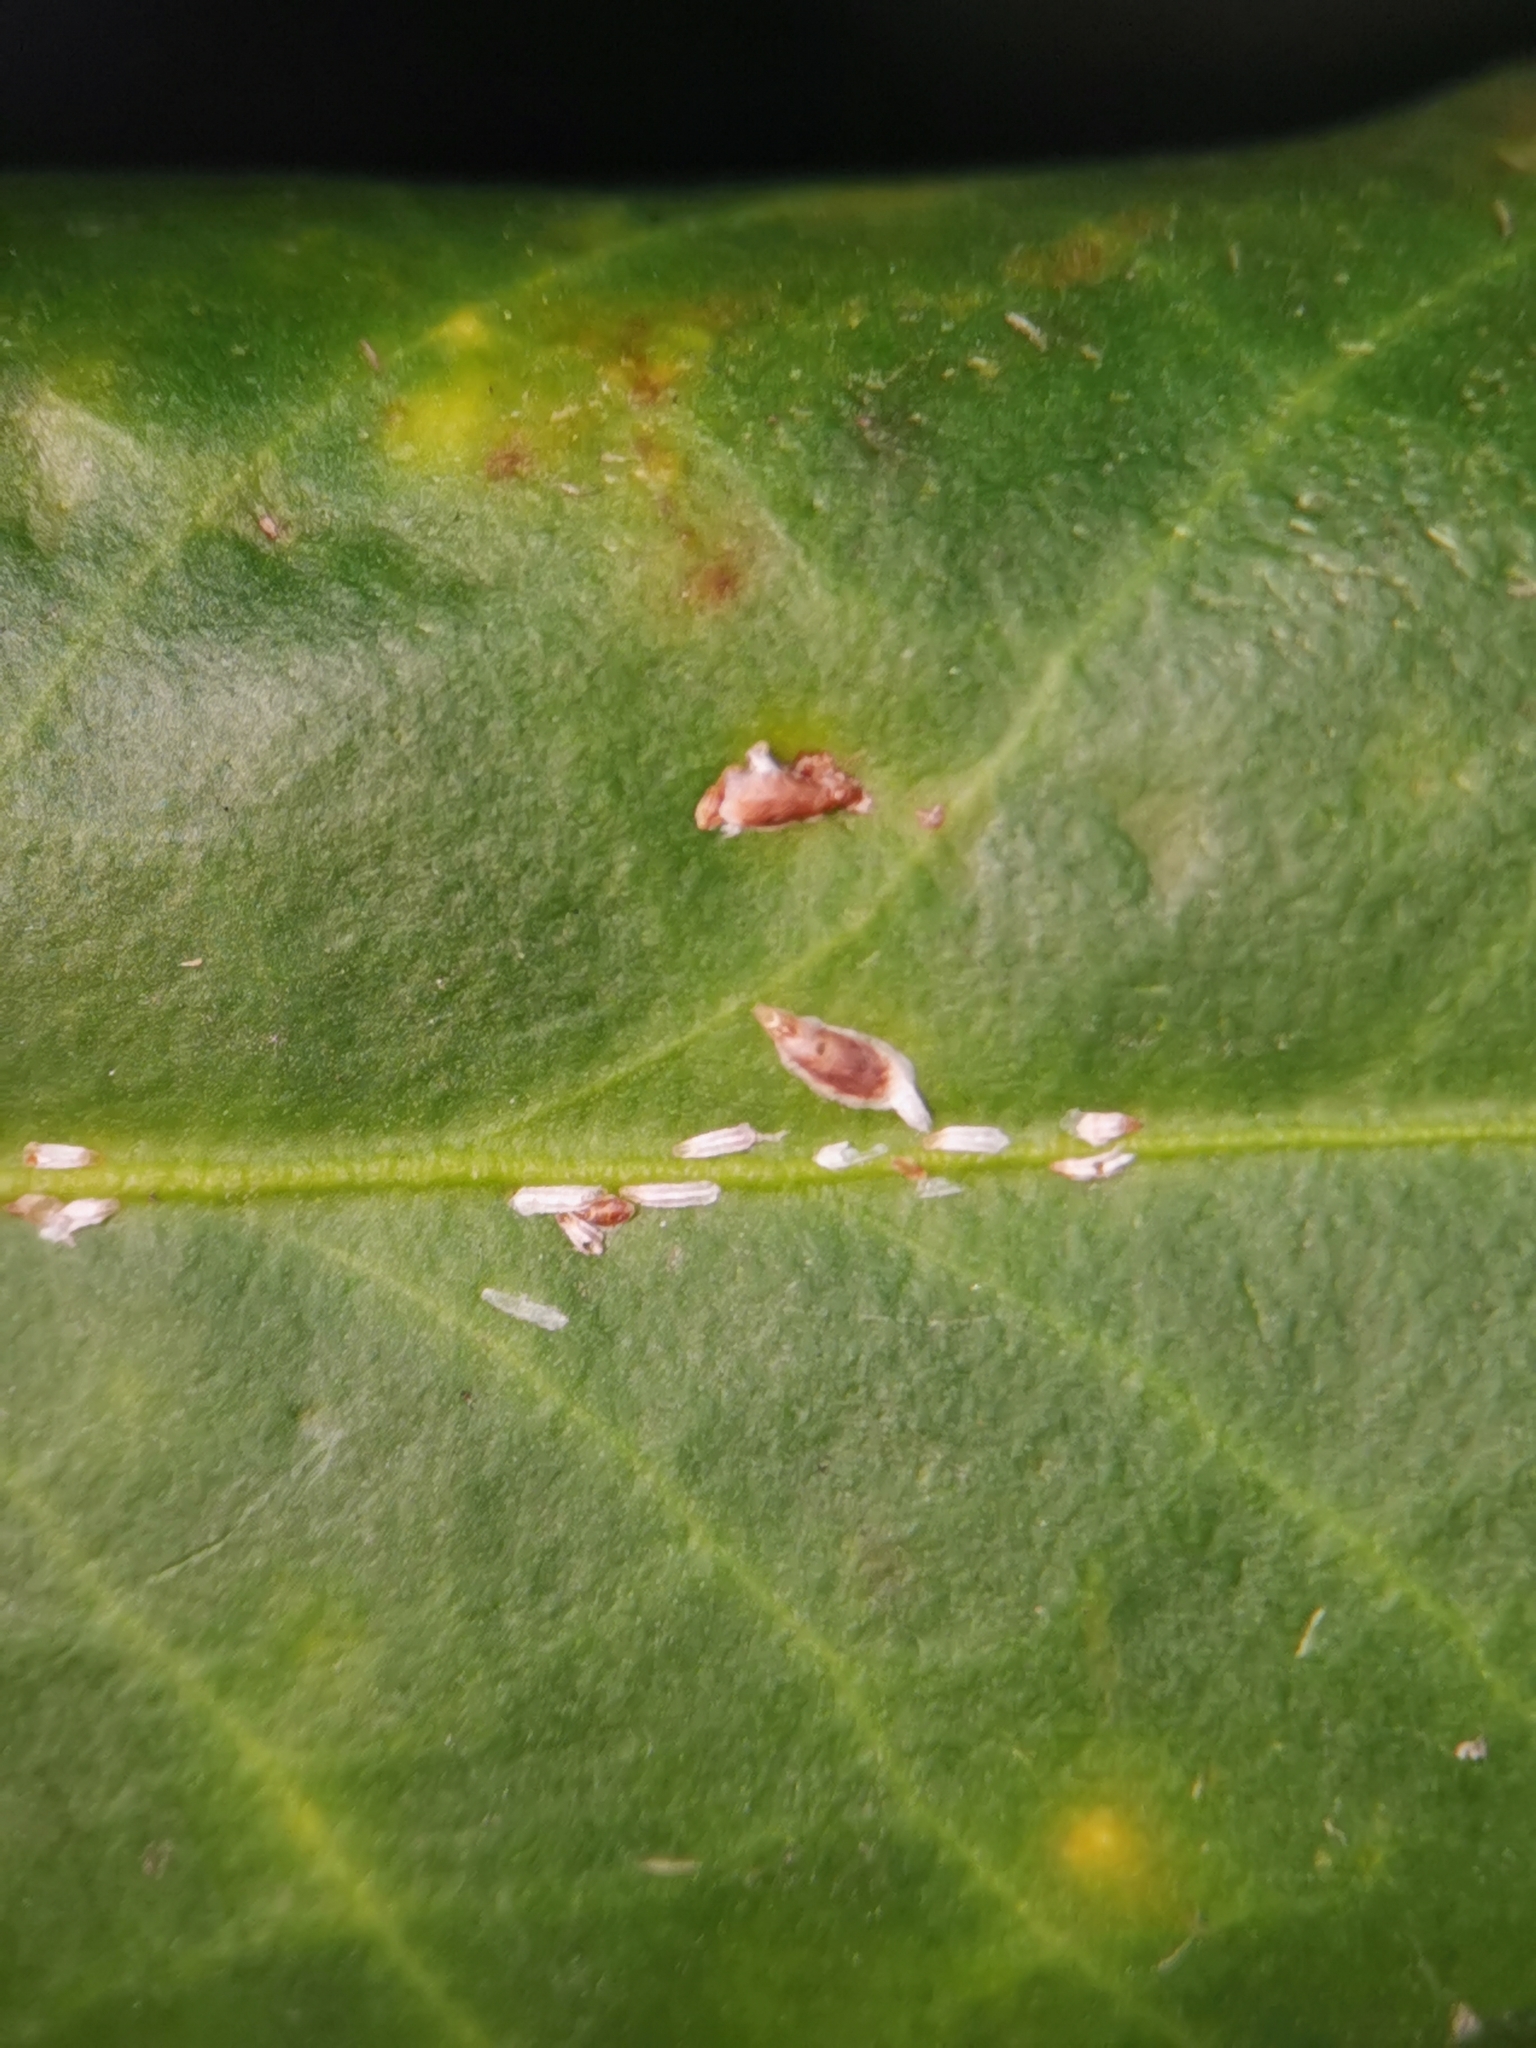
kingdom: Animalia
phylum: Arthropoda
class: Insecta
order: Hemiptera
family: Diaspididae
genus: Unaspis
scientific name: Unaspis euonymi
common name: Euonymus scale
